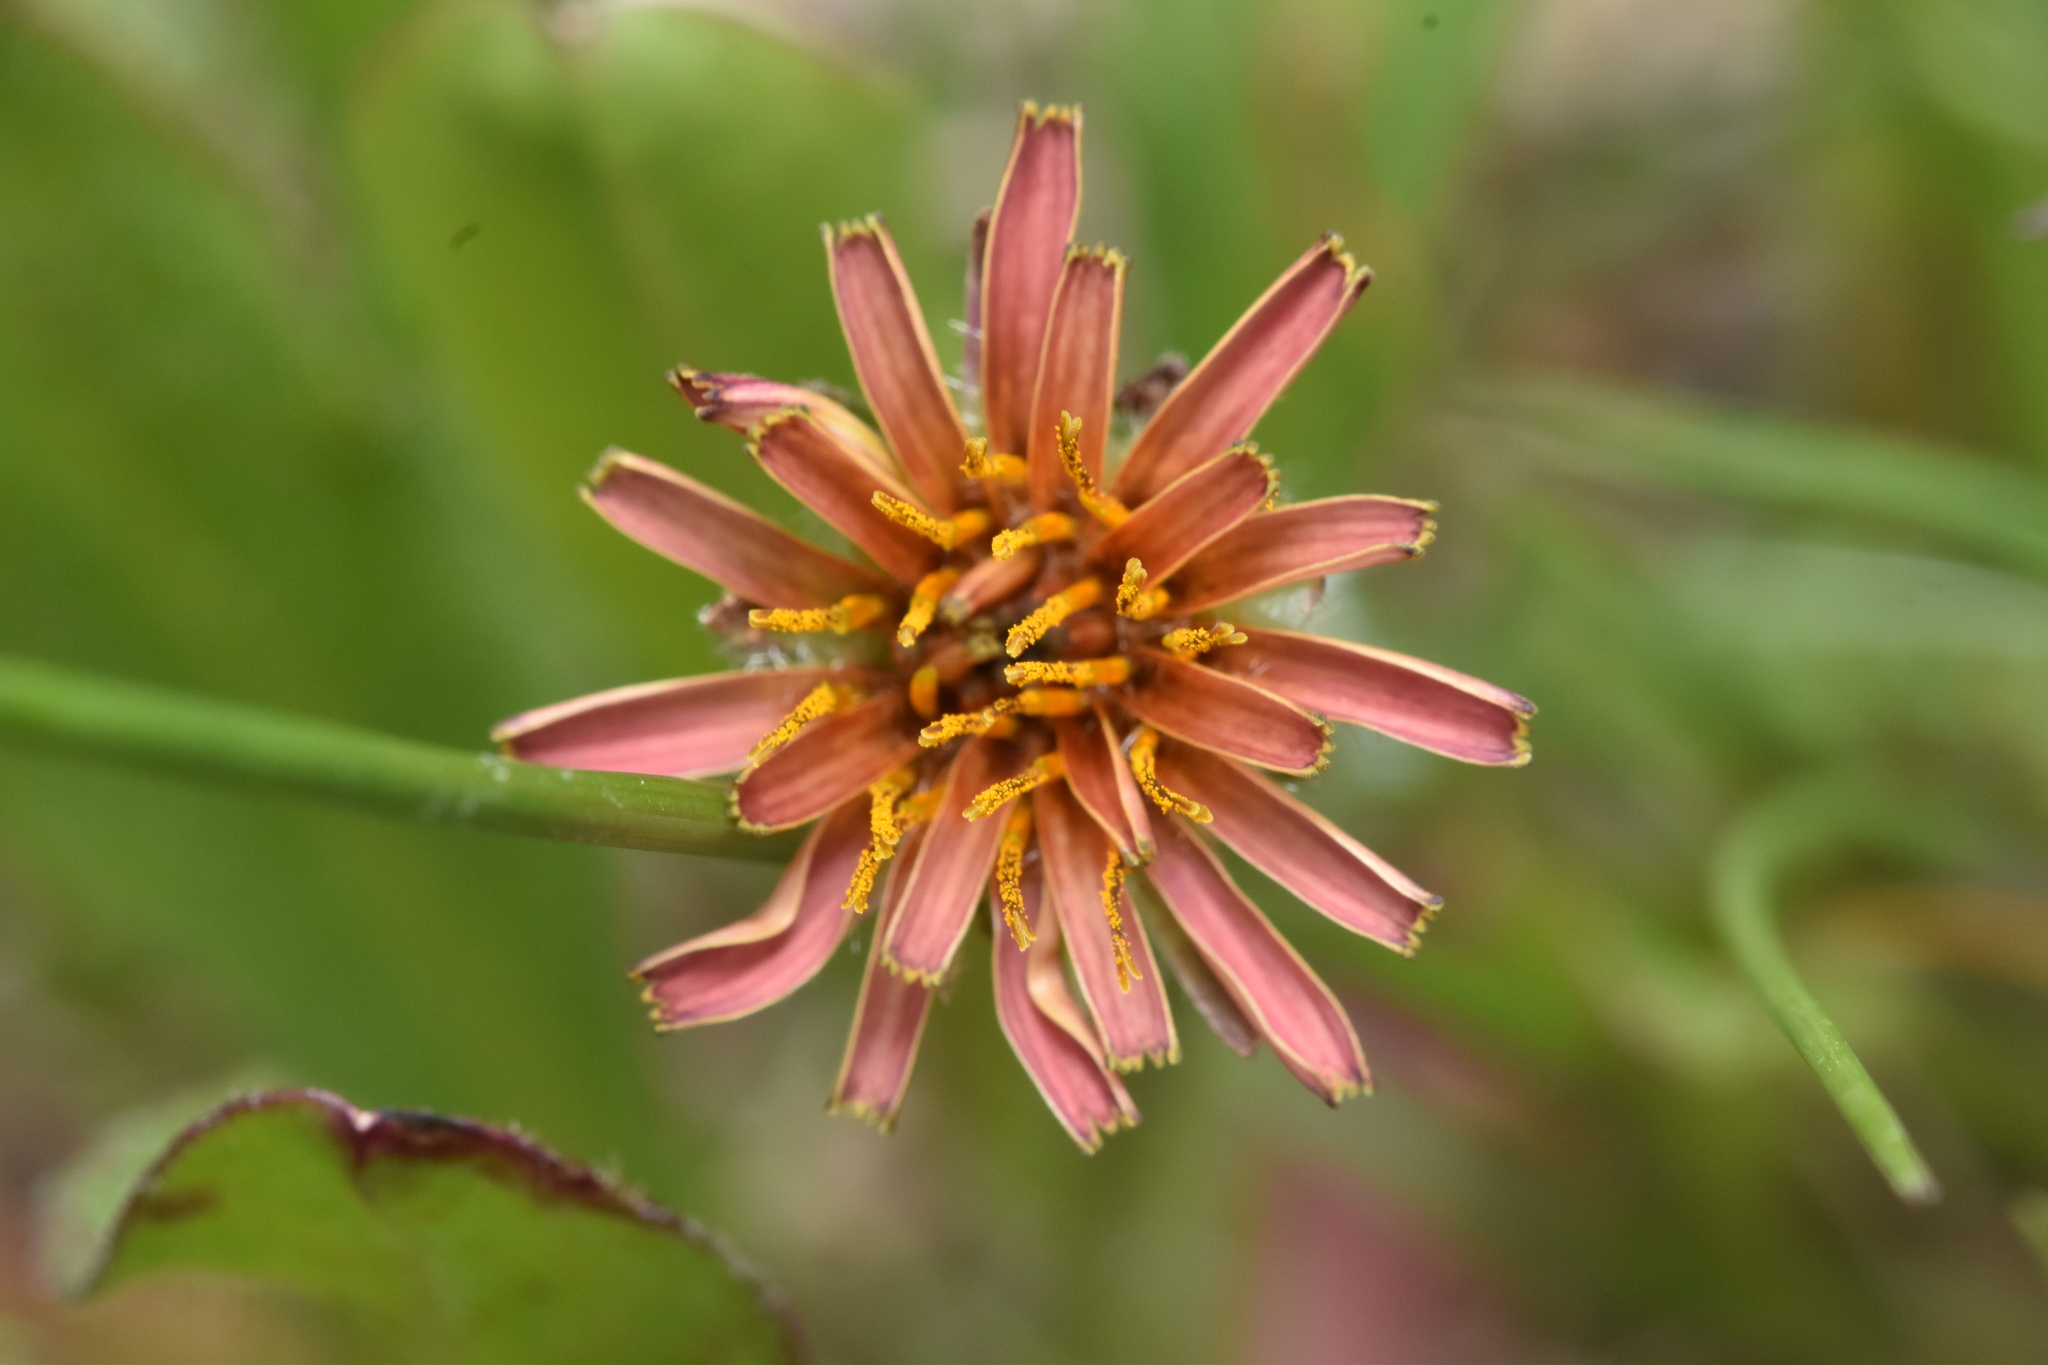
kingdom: Plantae
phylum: Tracheophyta
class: Magnoliopsida
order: Asterales
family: Asteraceae
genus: Agoseris
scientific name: Agoseris aurantiaca
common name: Mountain agoseris
